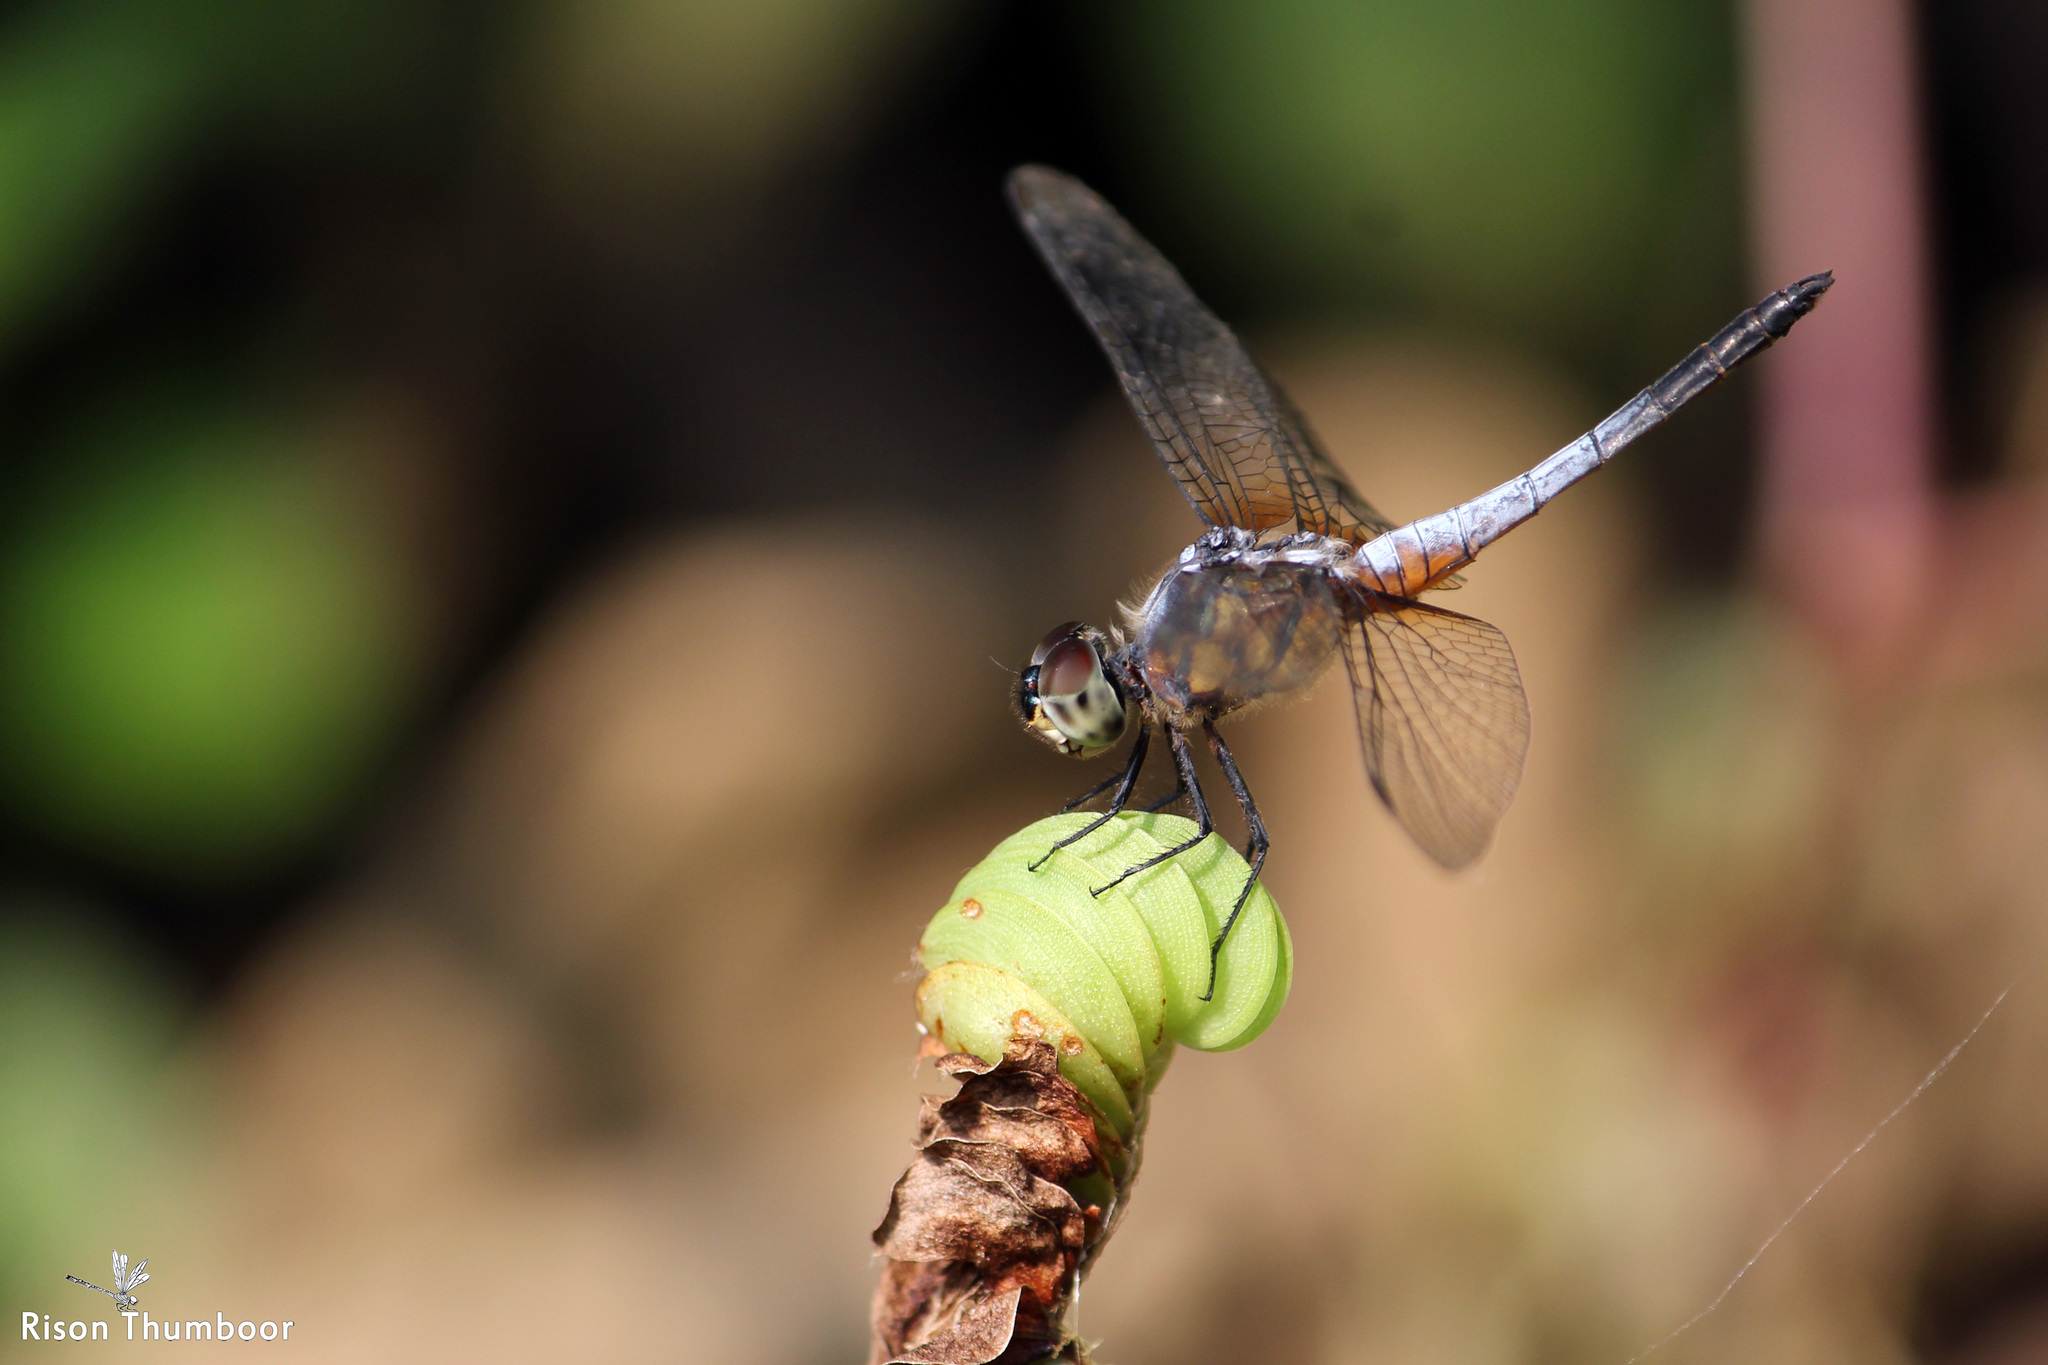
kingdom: Animalia
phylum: Arthropoda
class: Insecta
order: Odonata
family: Libellulidae
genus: Brachydiplax
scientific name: Brachydiplax chalybea
